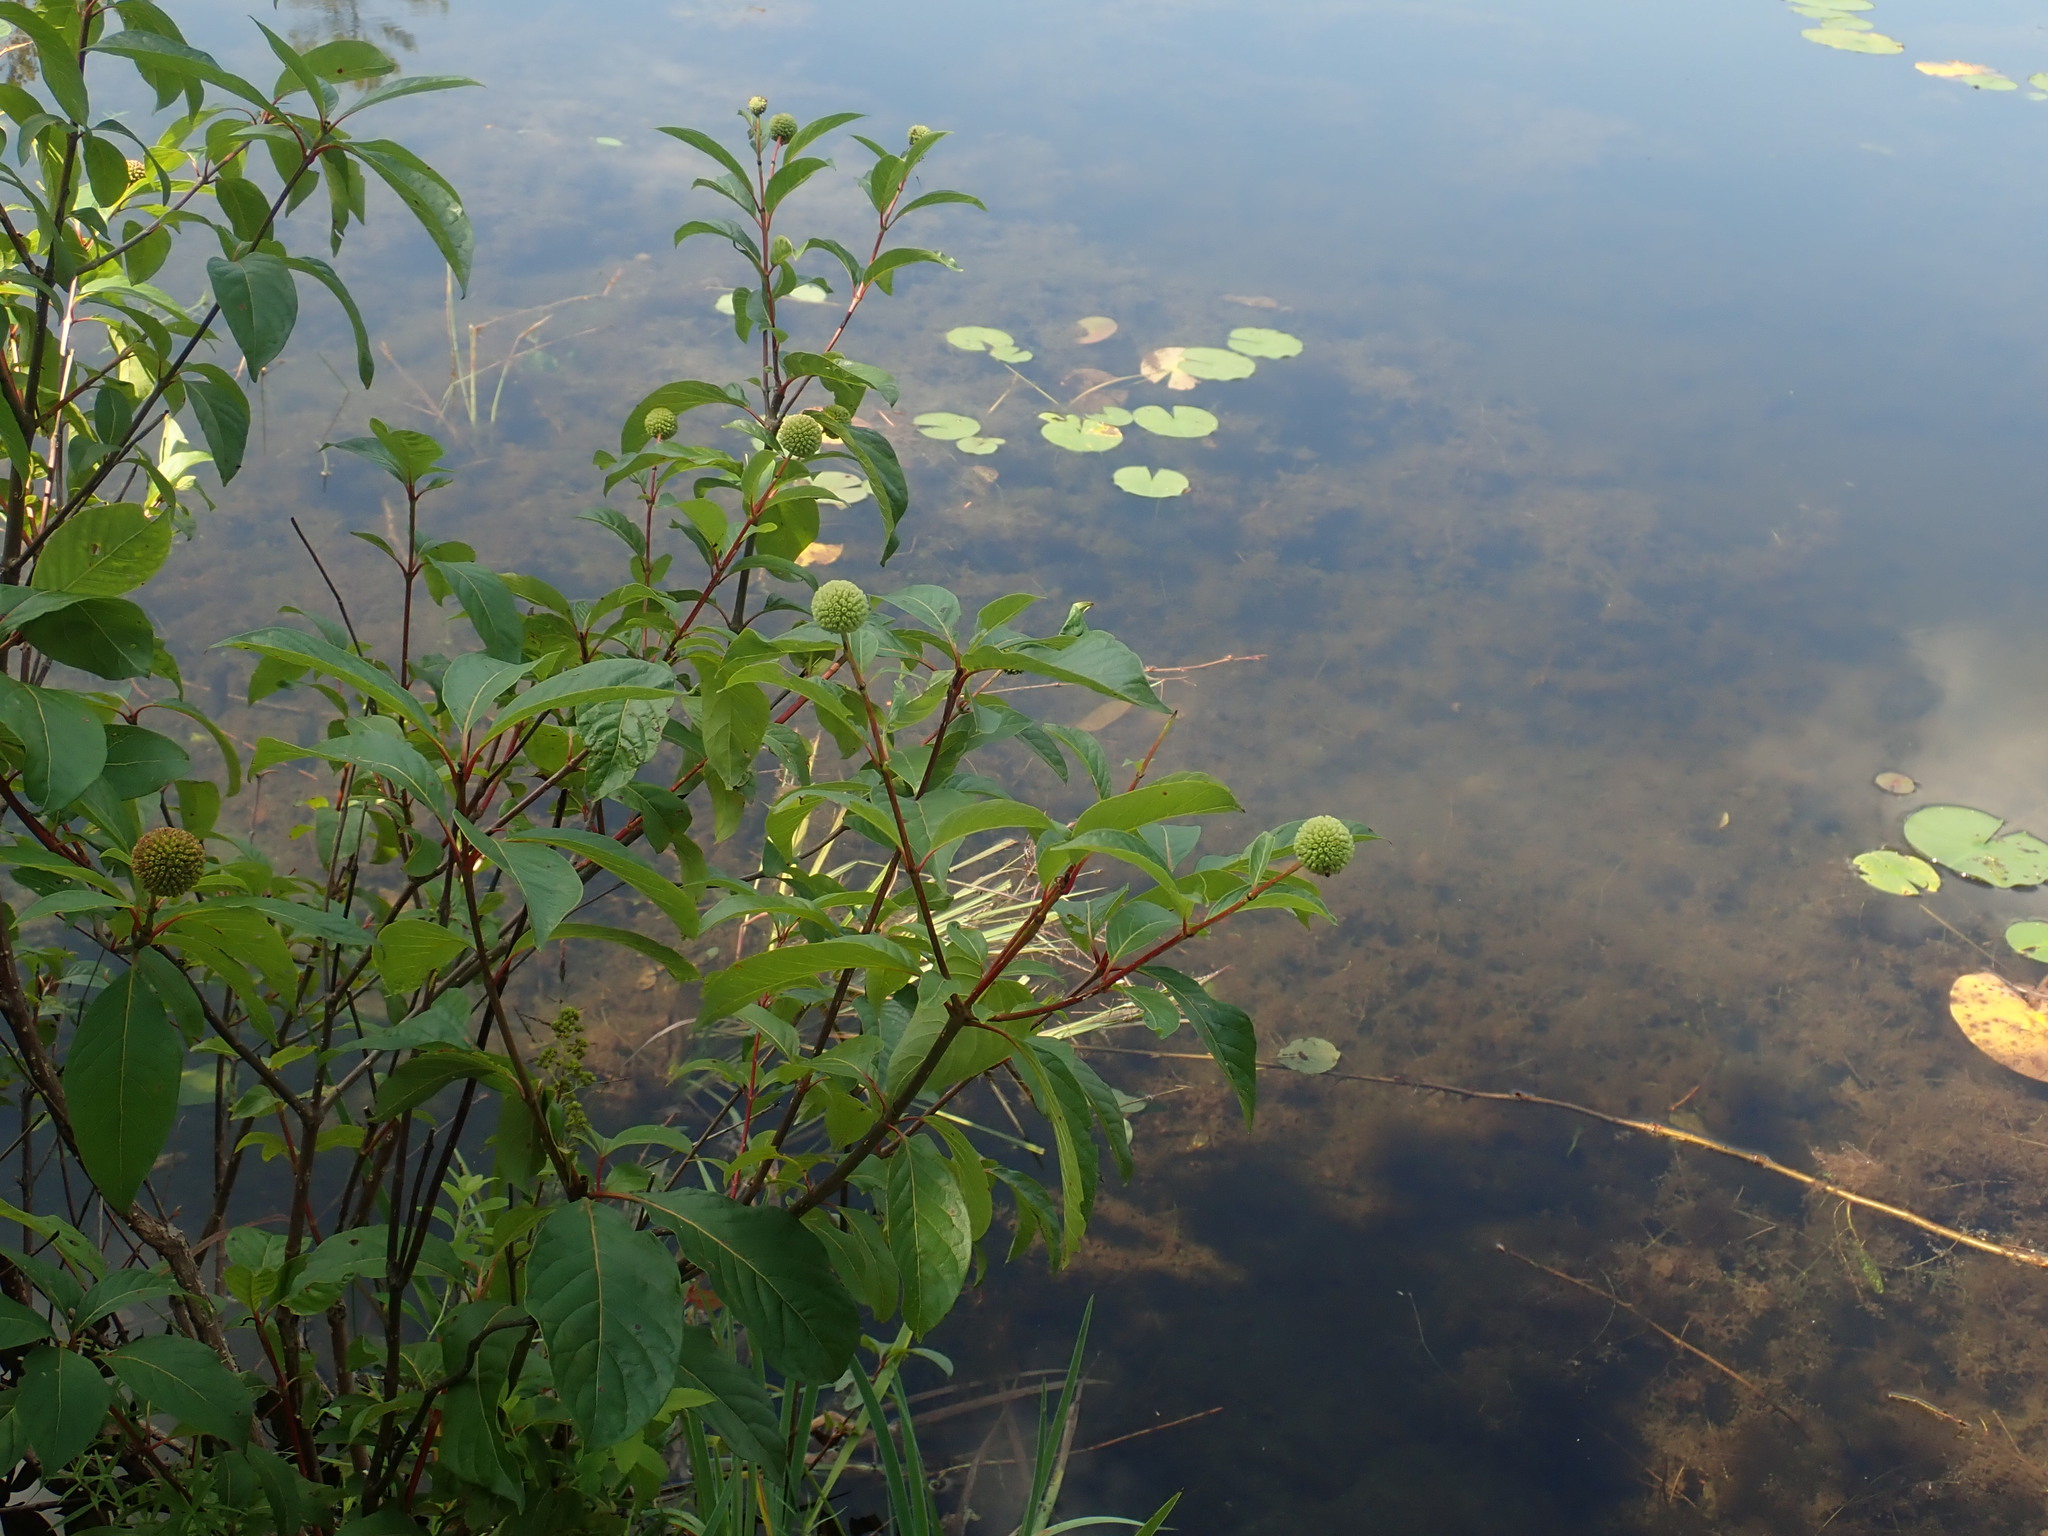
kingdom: Plantae
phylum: Tracheophyta
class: Magnoliopsida
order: Gentianales
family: Rubiaceae
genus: Cephalanthus
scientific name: Cephalanthus occidentalis
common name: Button-willow
